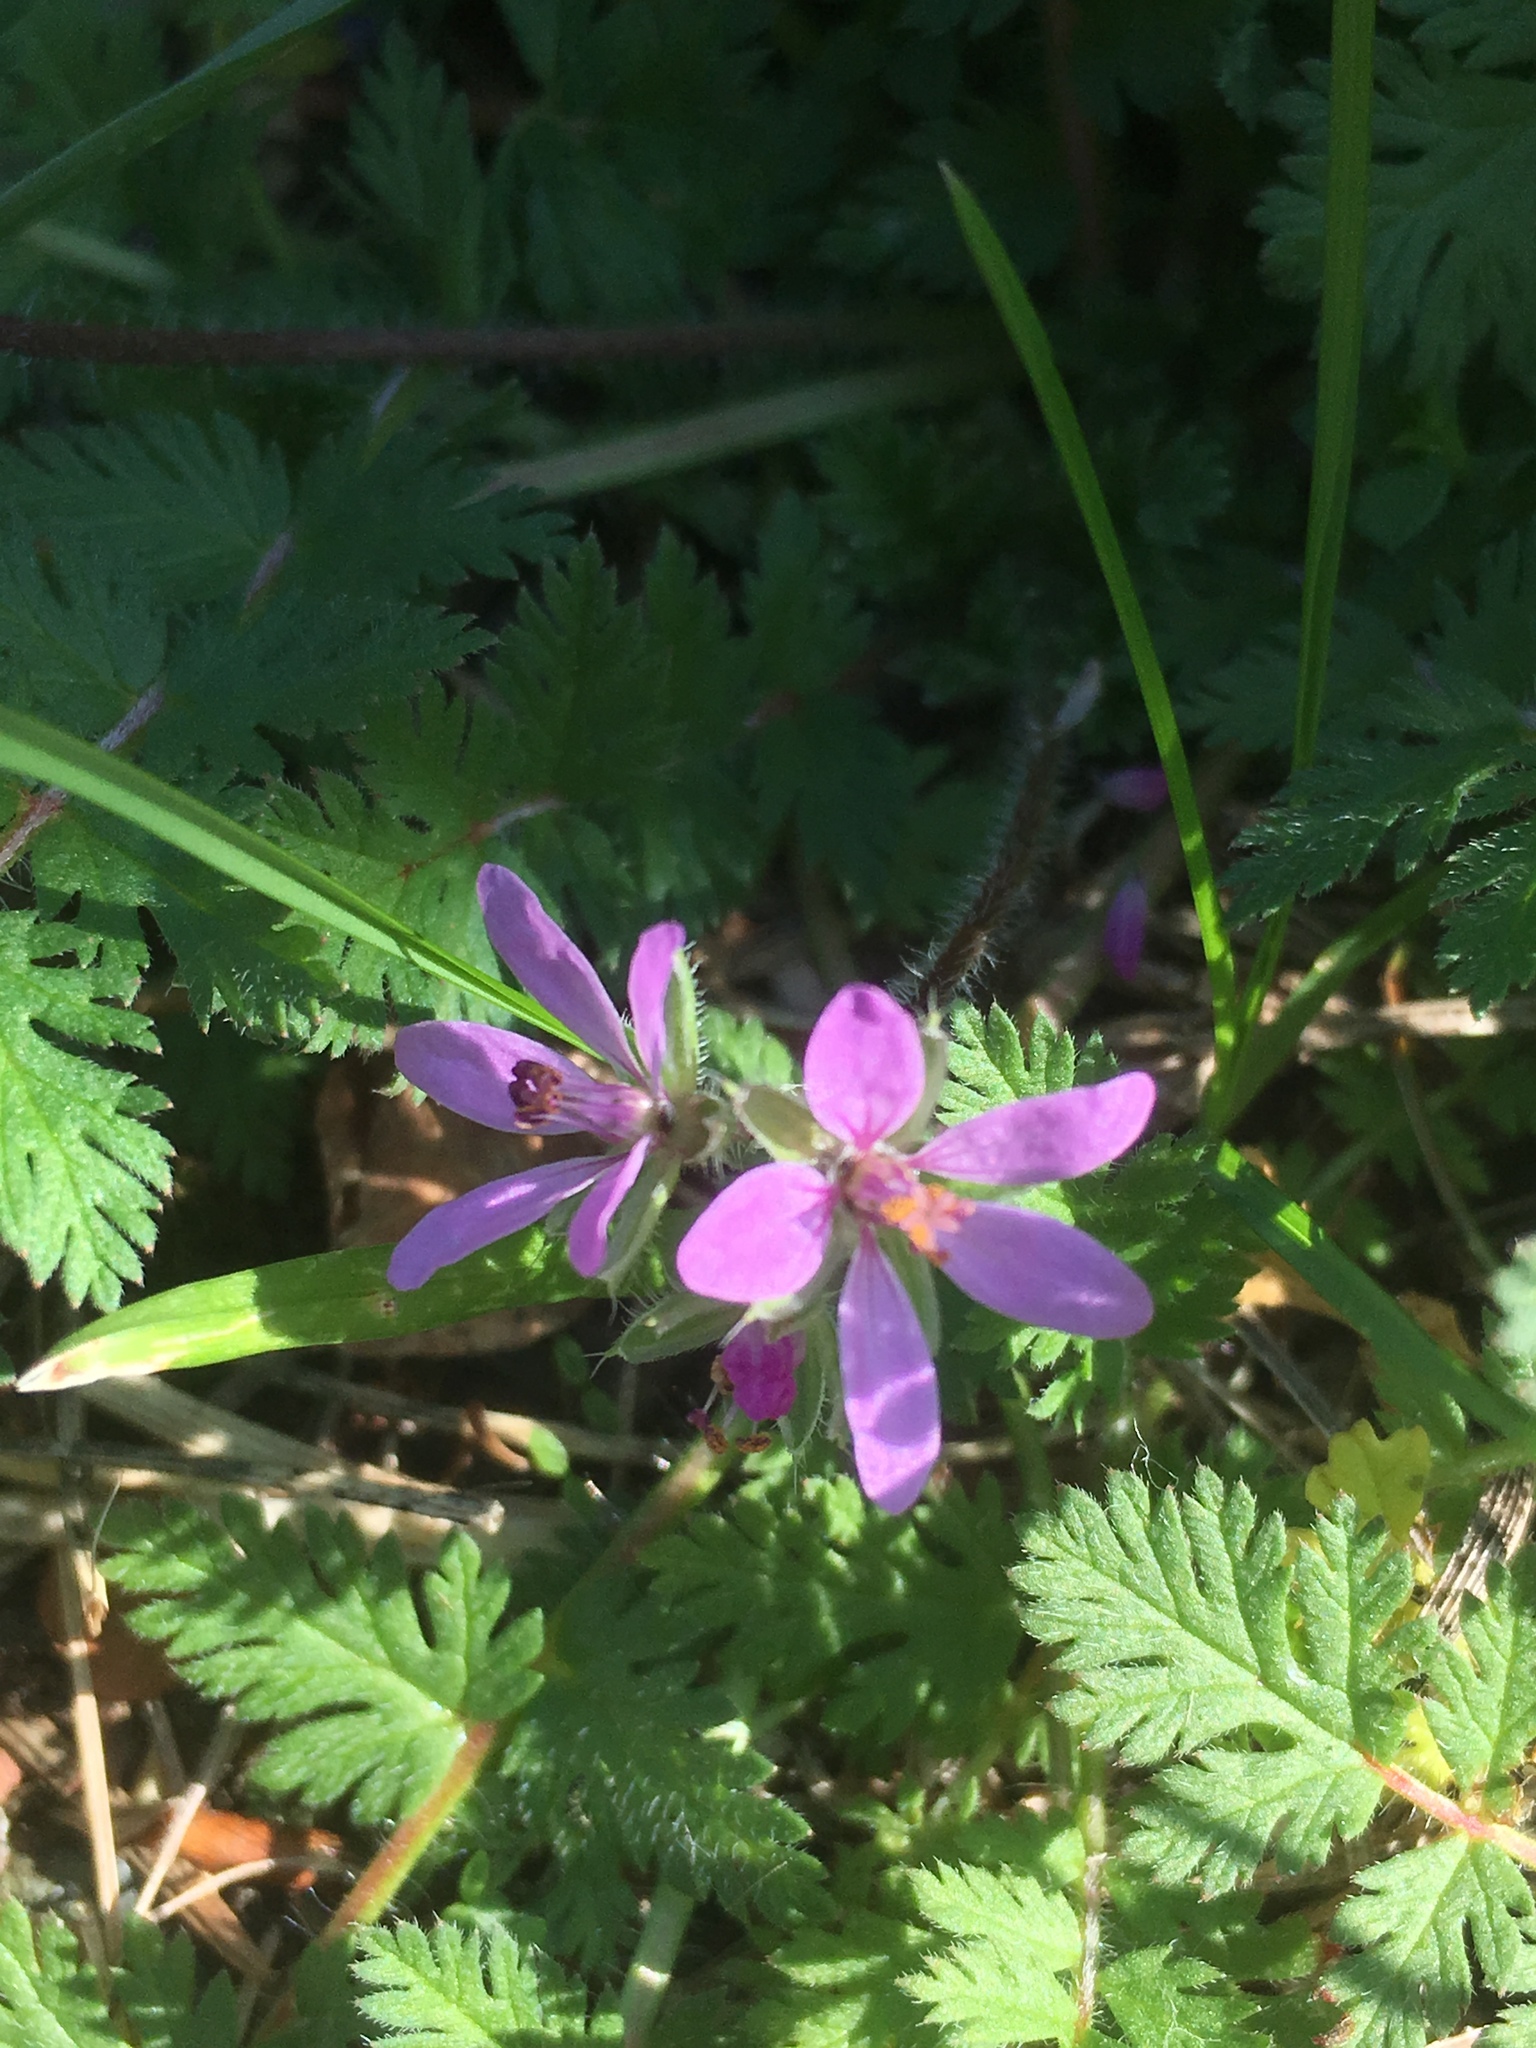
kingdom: Plantae
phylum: Tracheophyta
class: Magnoliopsida
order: Geraniales
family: Geraniaceae
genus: Erodium
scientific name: Erodium cicutarium
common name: Common stork's-bill
